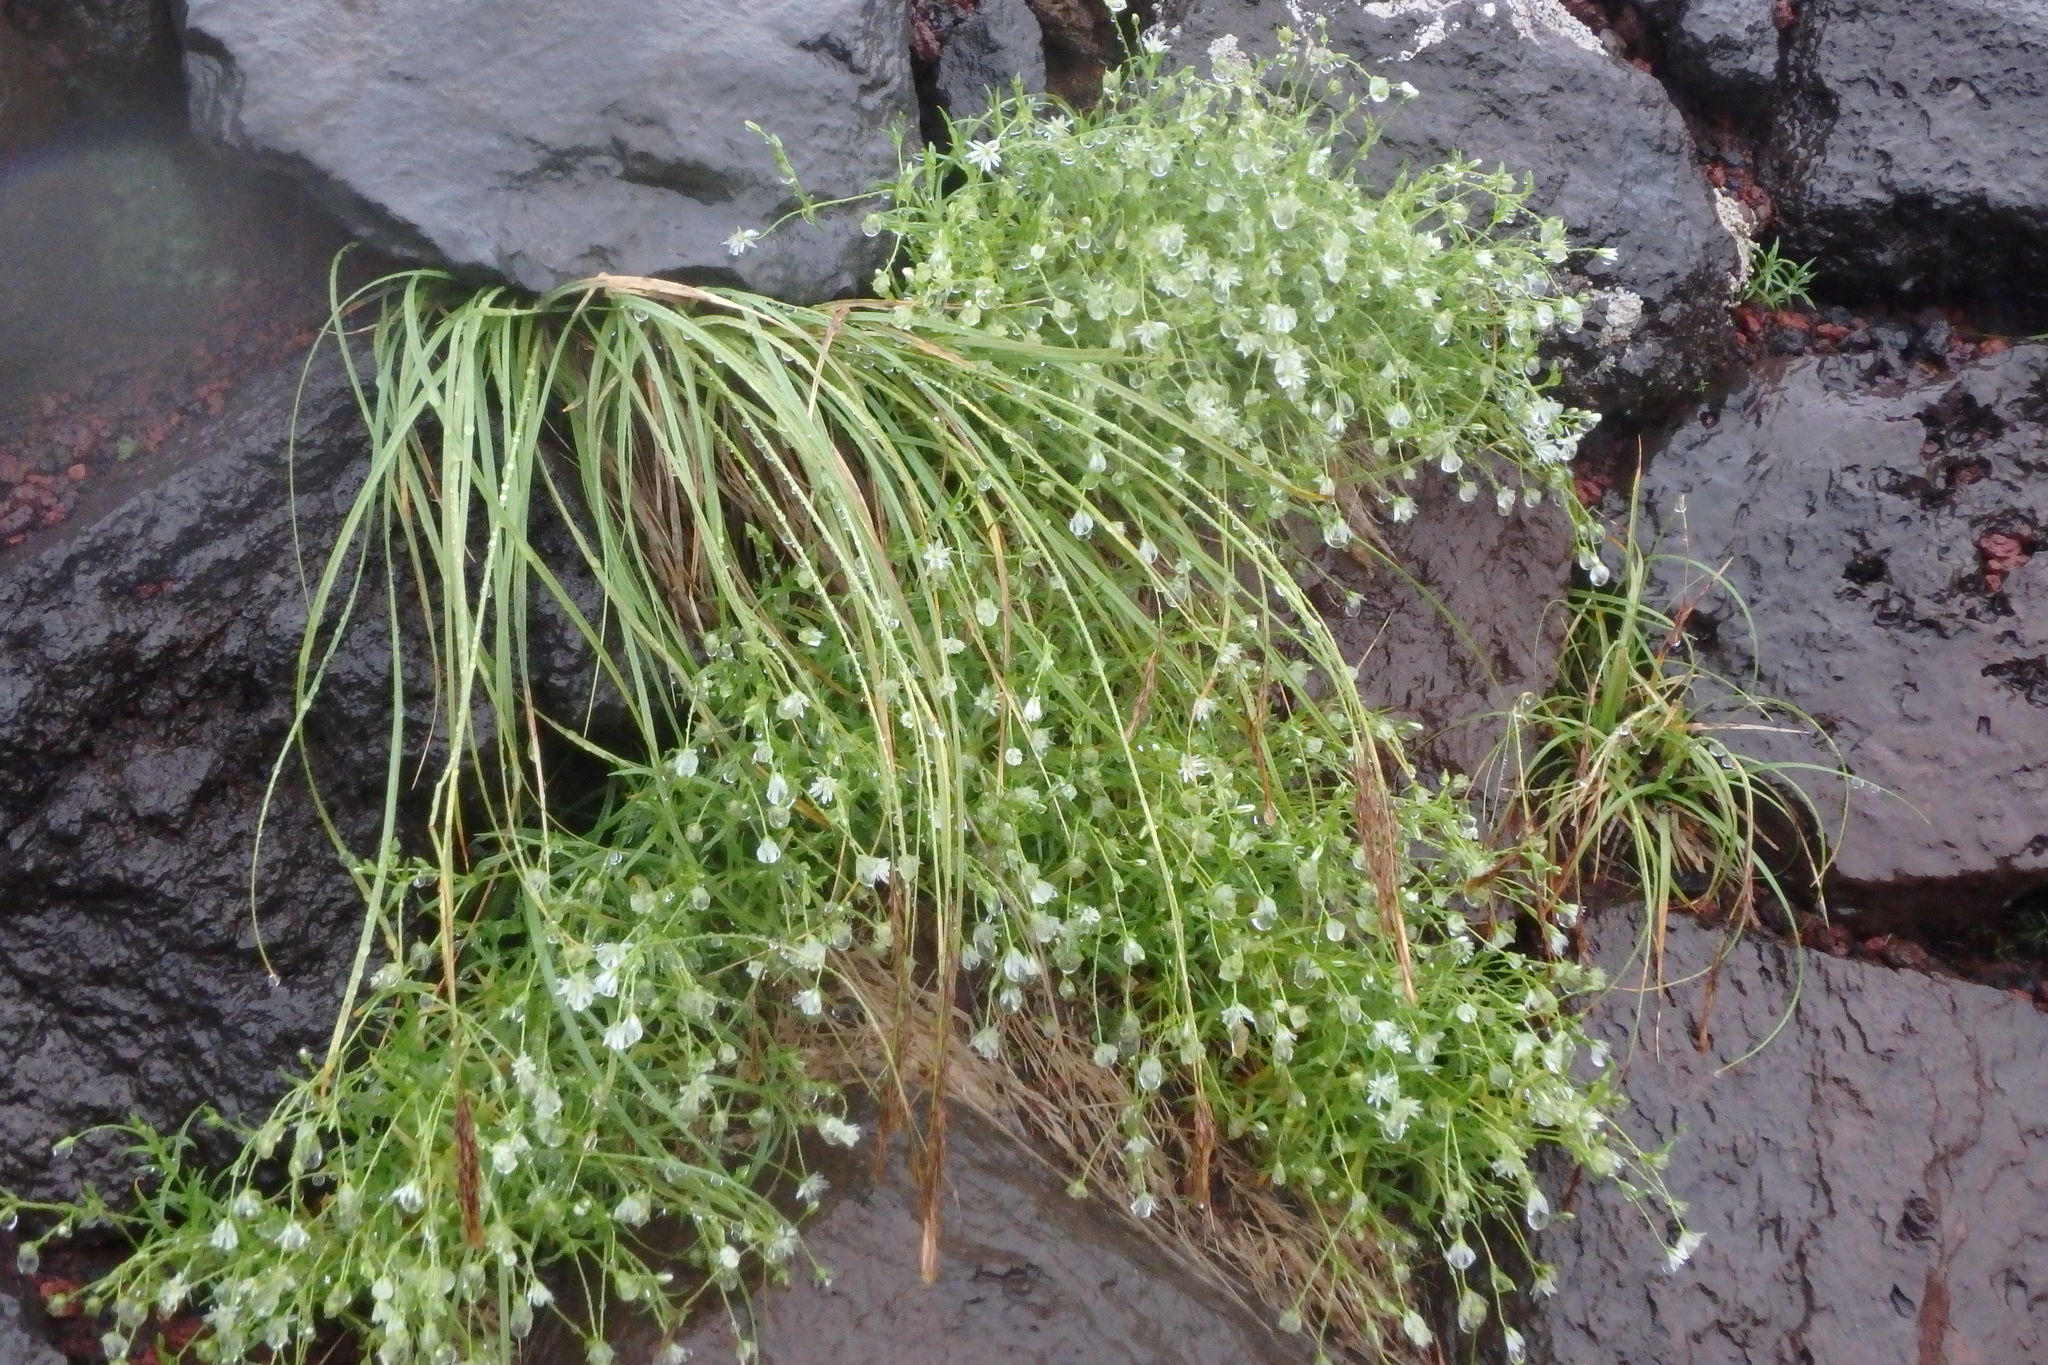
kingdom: Plantae
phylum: Tracheophyta
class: Magnoliopsida
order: Caryophyllales
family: Caryophyllaceae
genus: Stellaria
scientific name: Stellaria nipponica
